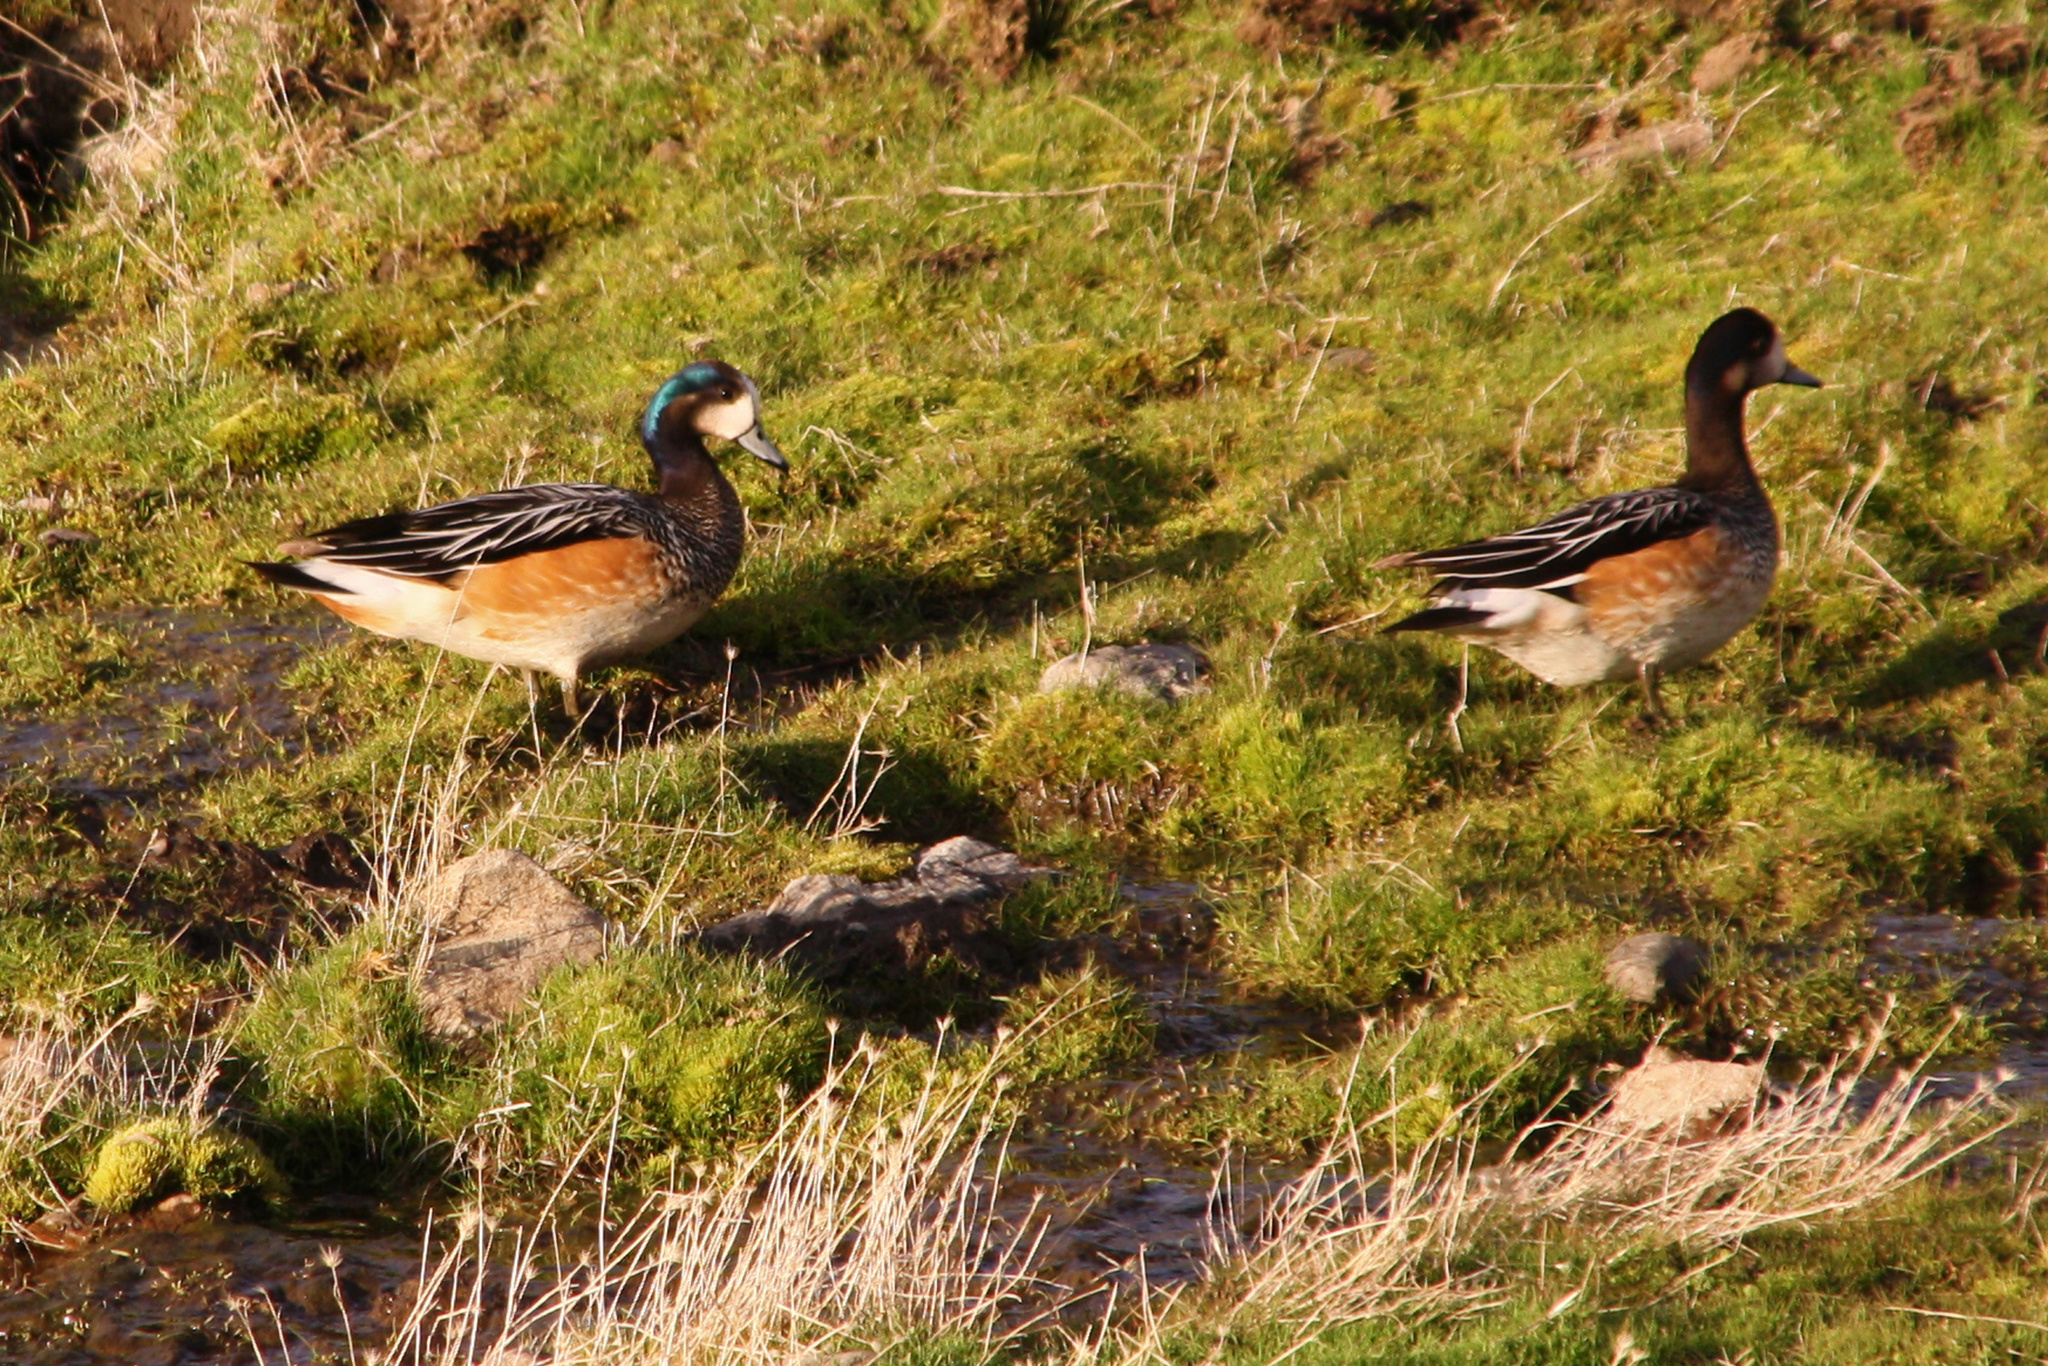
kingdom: Animalia
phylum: Chordata
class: Aves
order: Anseriformes
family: Anatidae
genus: Mareca
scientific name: Mareca sibilatrix
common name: Chiloe wigeon
